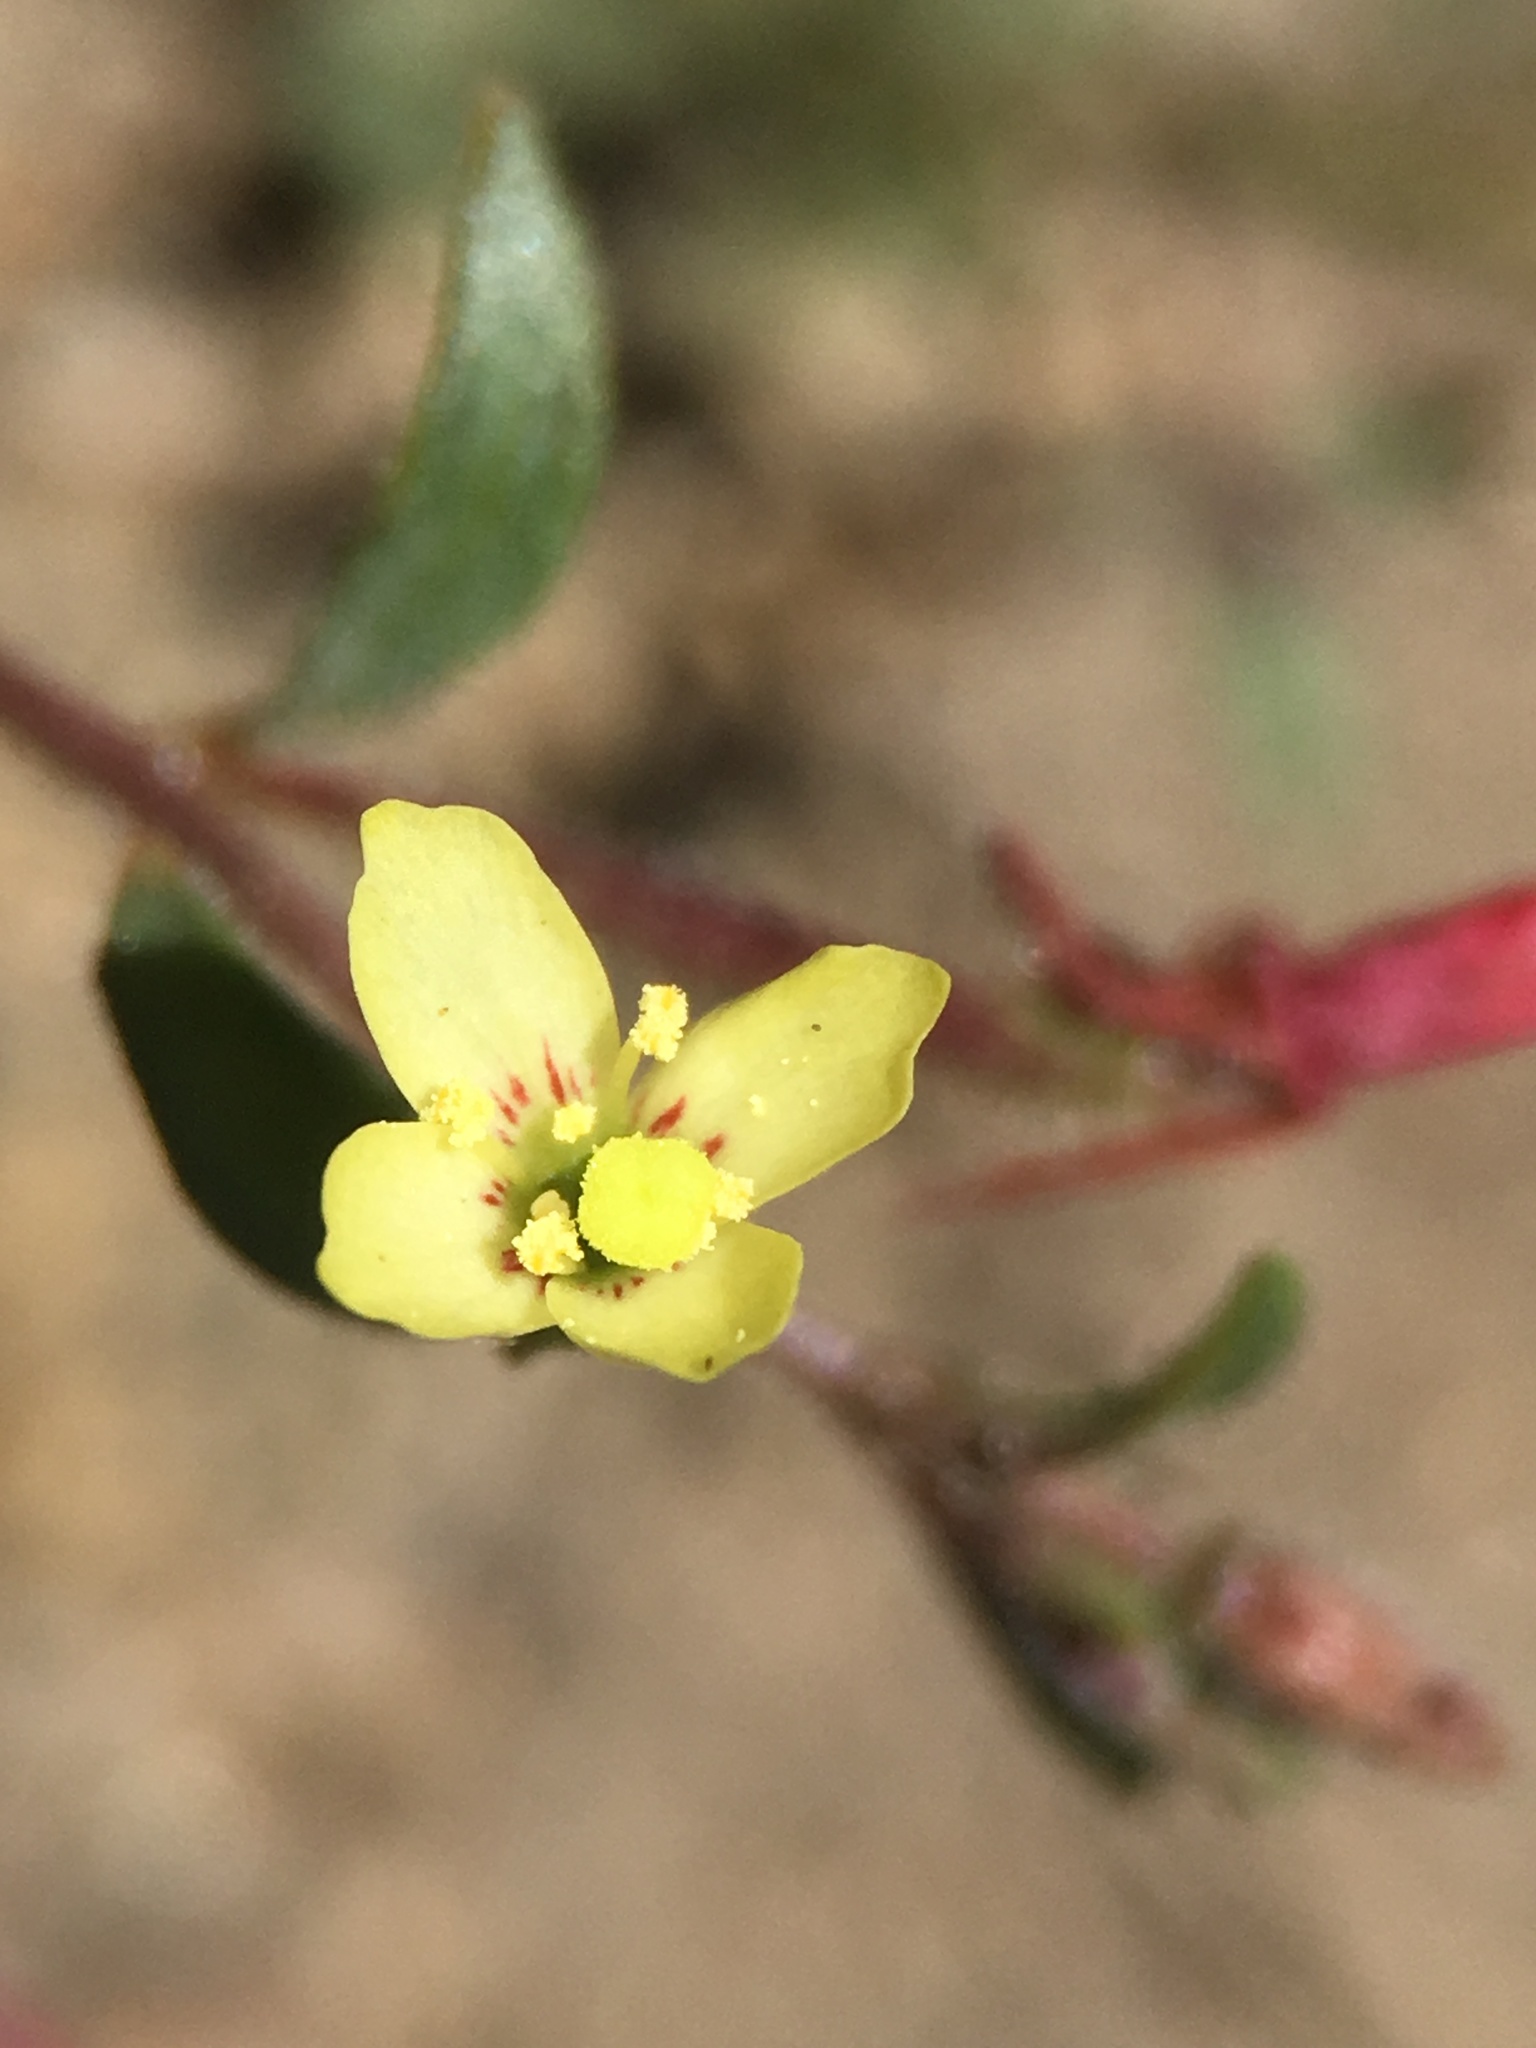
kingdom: Plantae
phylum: Tracheophyta
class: Magnoliopsida
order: Myrtales
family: Onagraceae
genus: Camissonia
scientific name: Camissonia pusilla
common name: Obscure camissonia
